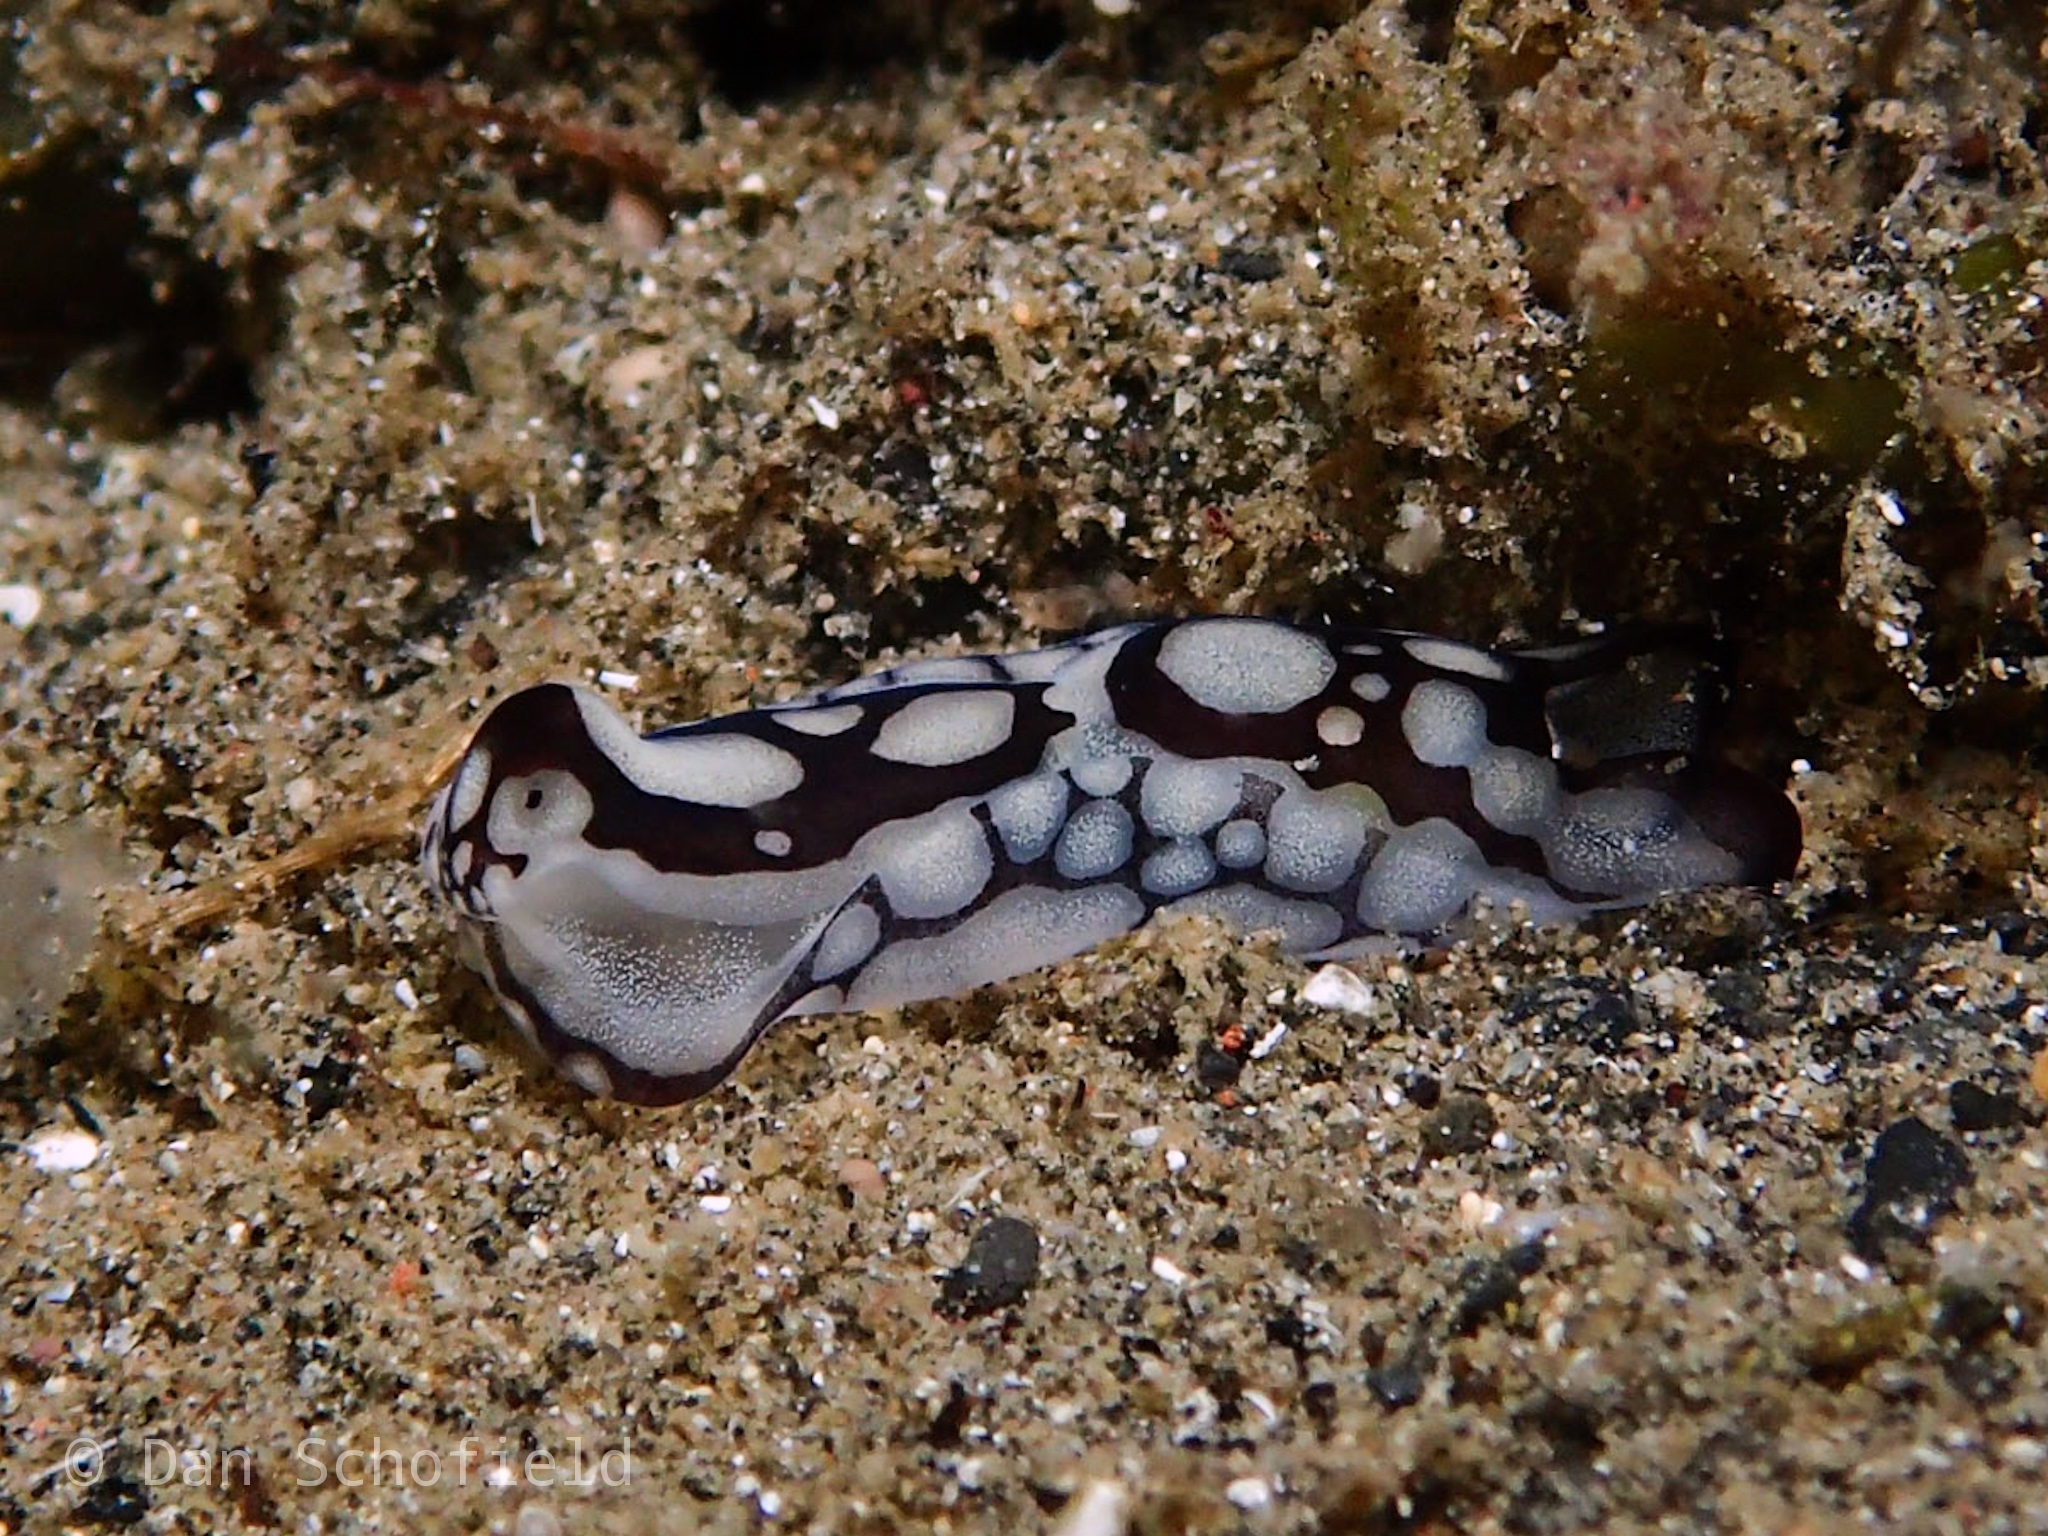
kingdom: Animalia
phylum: Mollusca
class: Gastropoda
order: Cephalaspidea
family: Aglajidae
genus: Tubulophilinopsis
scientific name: Tubulophilinopsis pilsbryi
